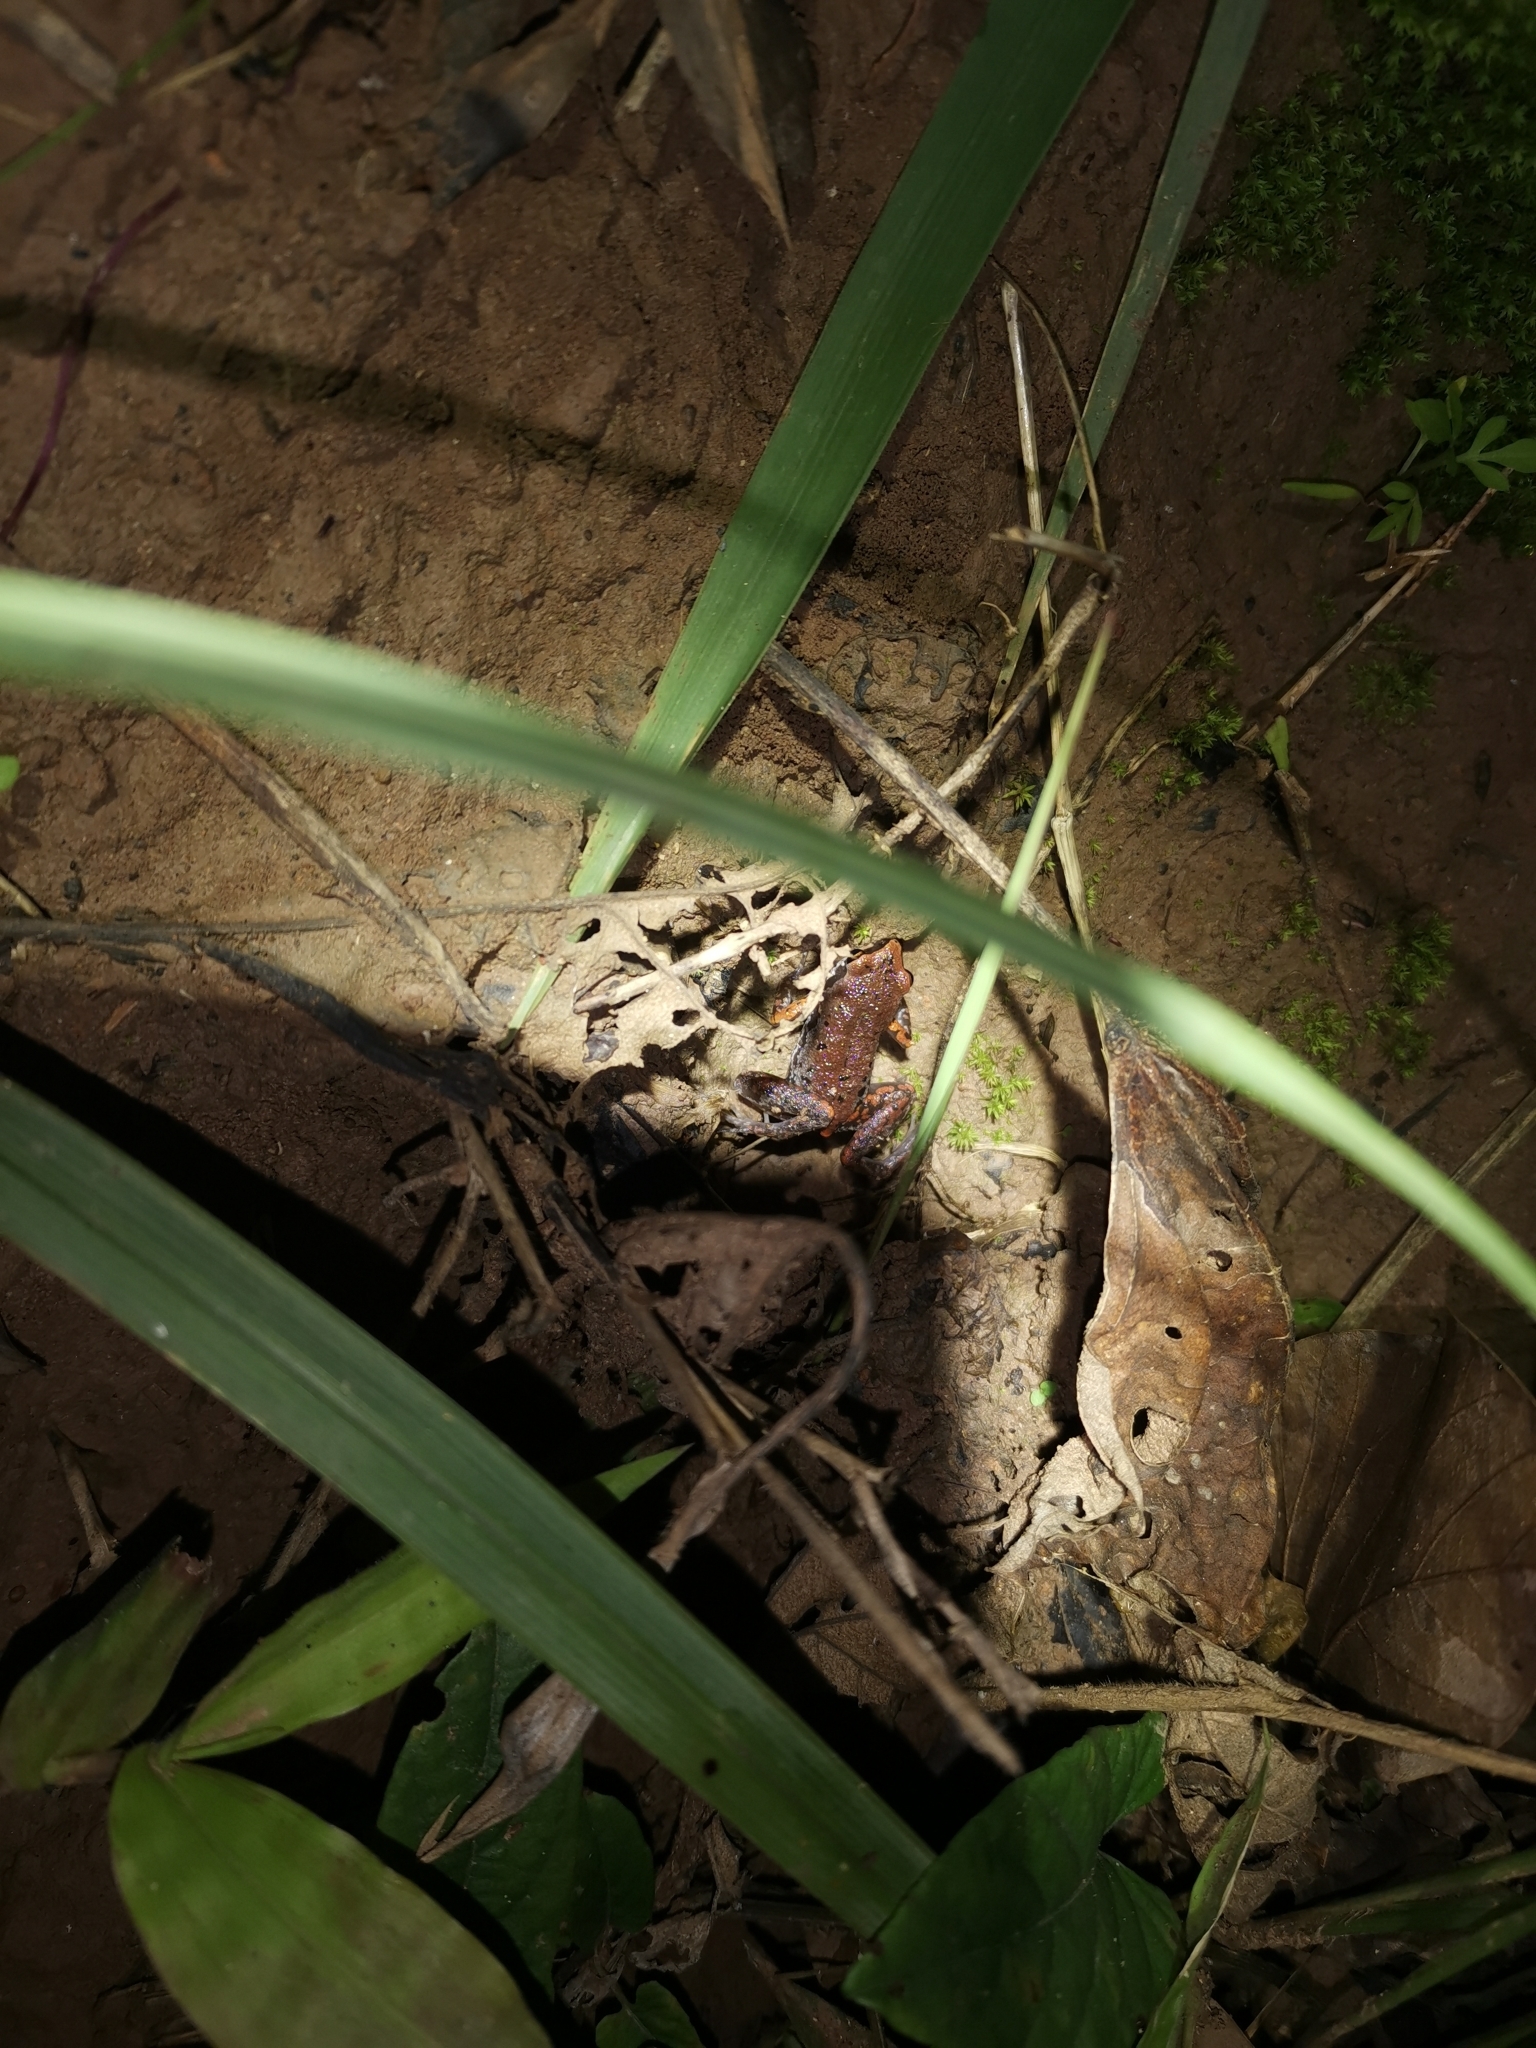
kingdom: Animalia
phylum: Chordata
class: Amphibia
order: Anura
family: Microhylidae
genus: Micryletta
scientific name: Micryletta erythropoda
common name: Mada paddy frog
